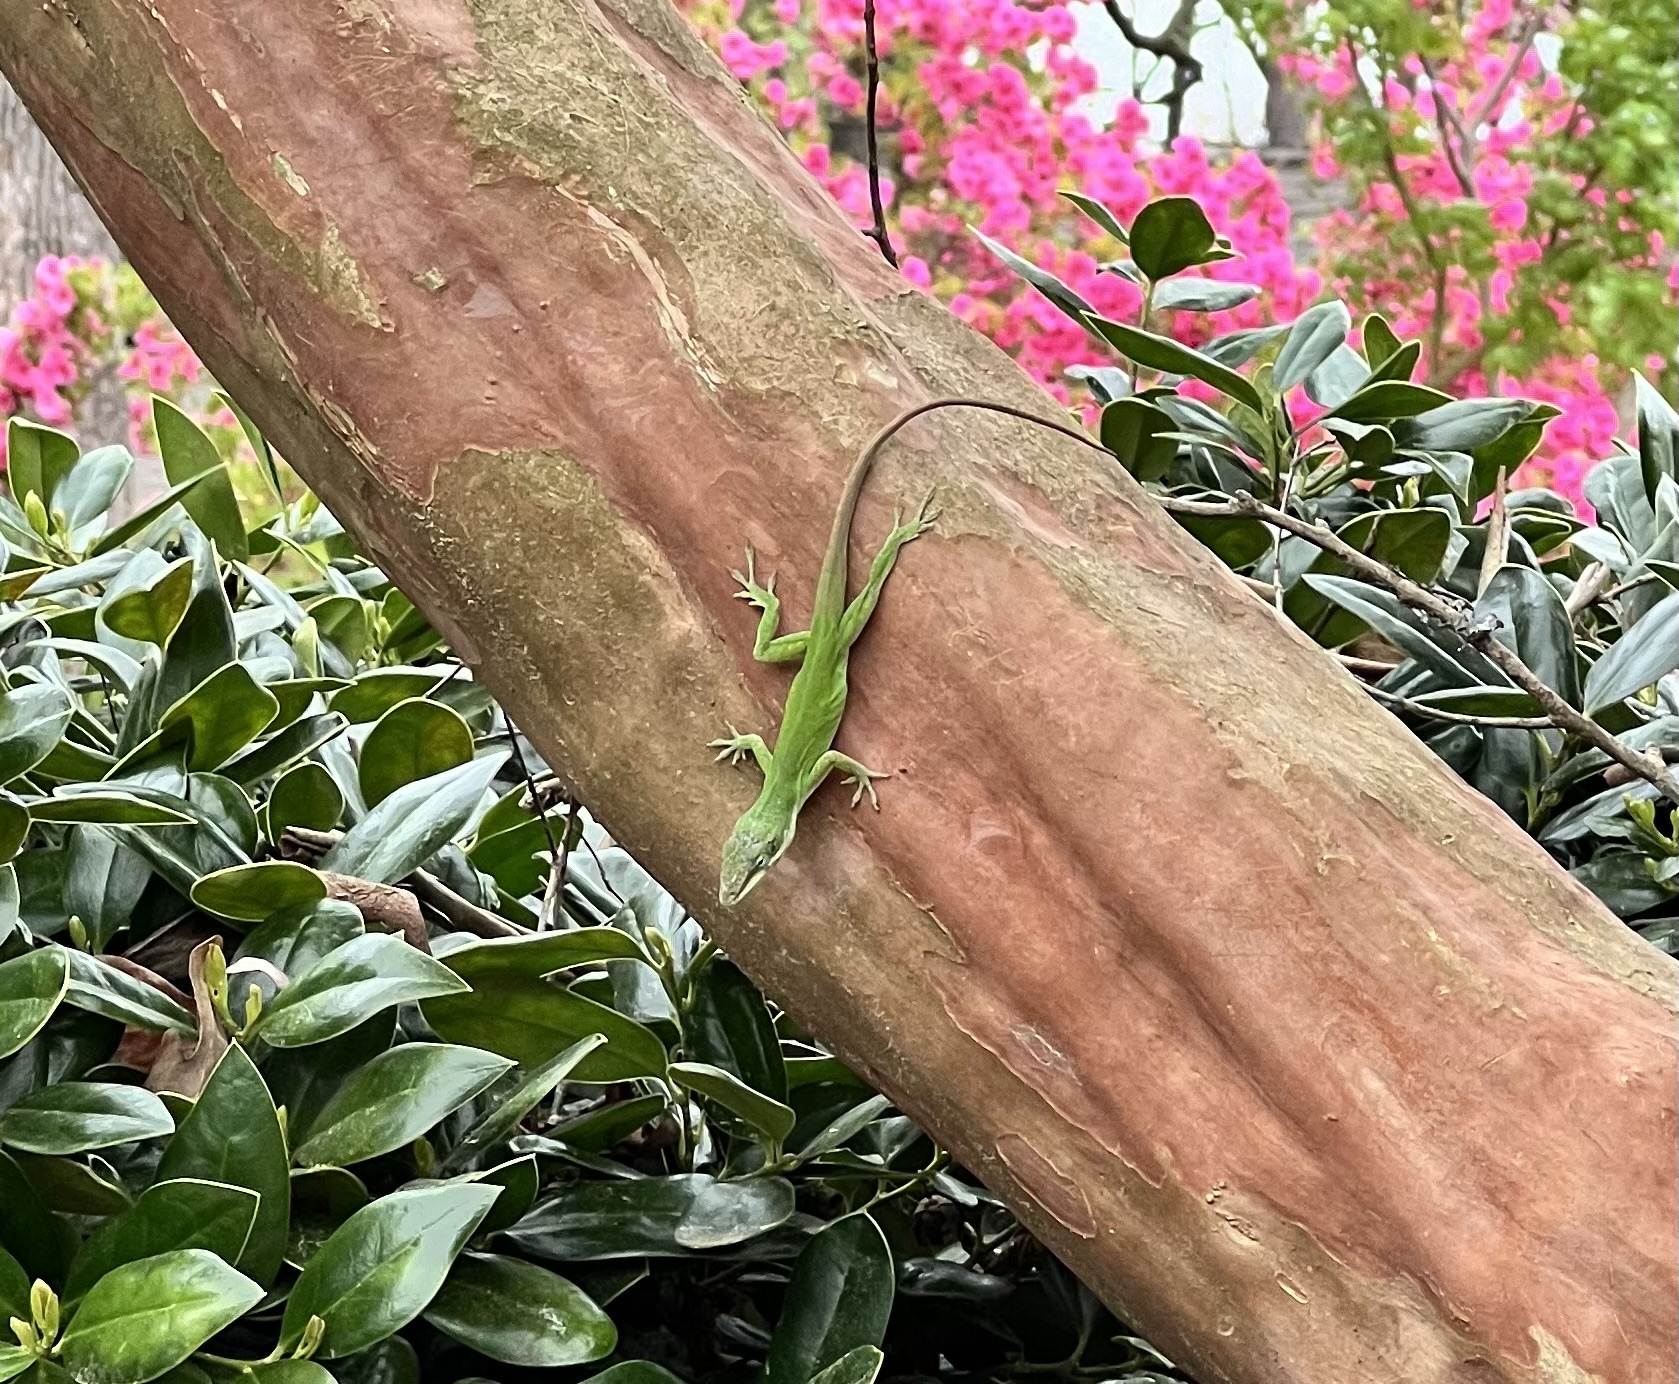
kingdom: Animalia
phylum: Chordata
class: Squamata
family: Dactyloidae
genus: Anolis
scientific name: Anolis carolinensis
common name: Green anole
